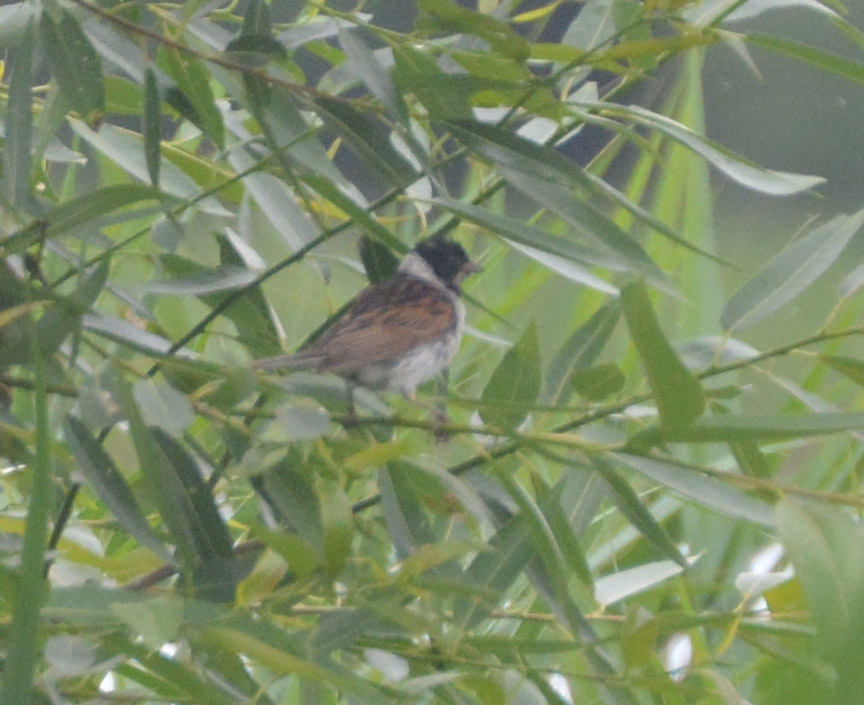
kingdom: Animalia
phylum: Chordata
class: Aves
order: Passeriformes
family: Emberizidae
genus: Emberiza
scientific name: Emberiza schoeniclus
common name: Reed bunting
